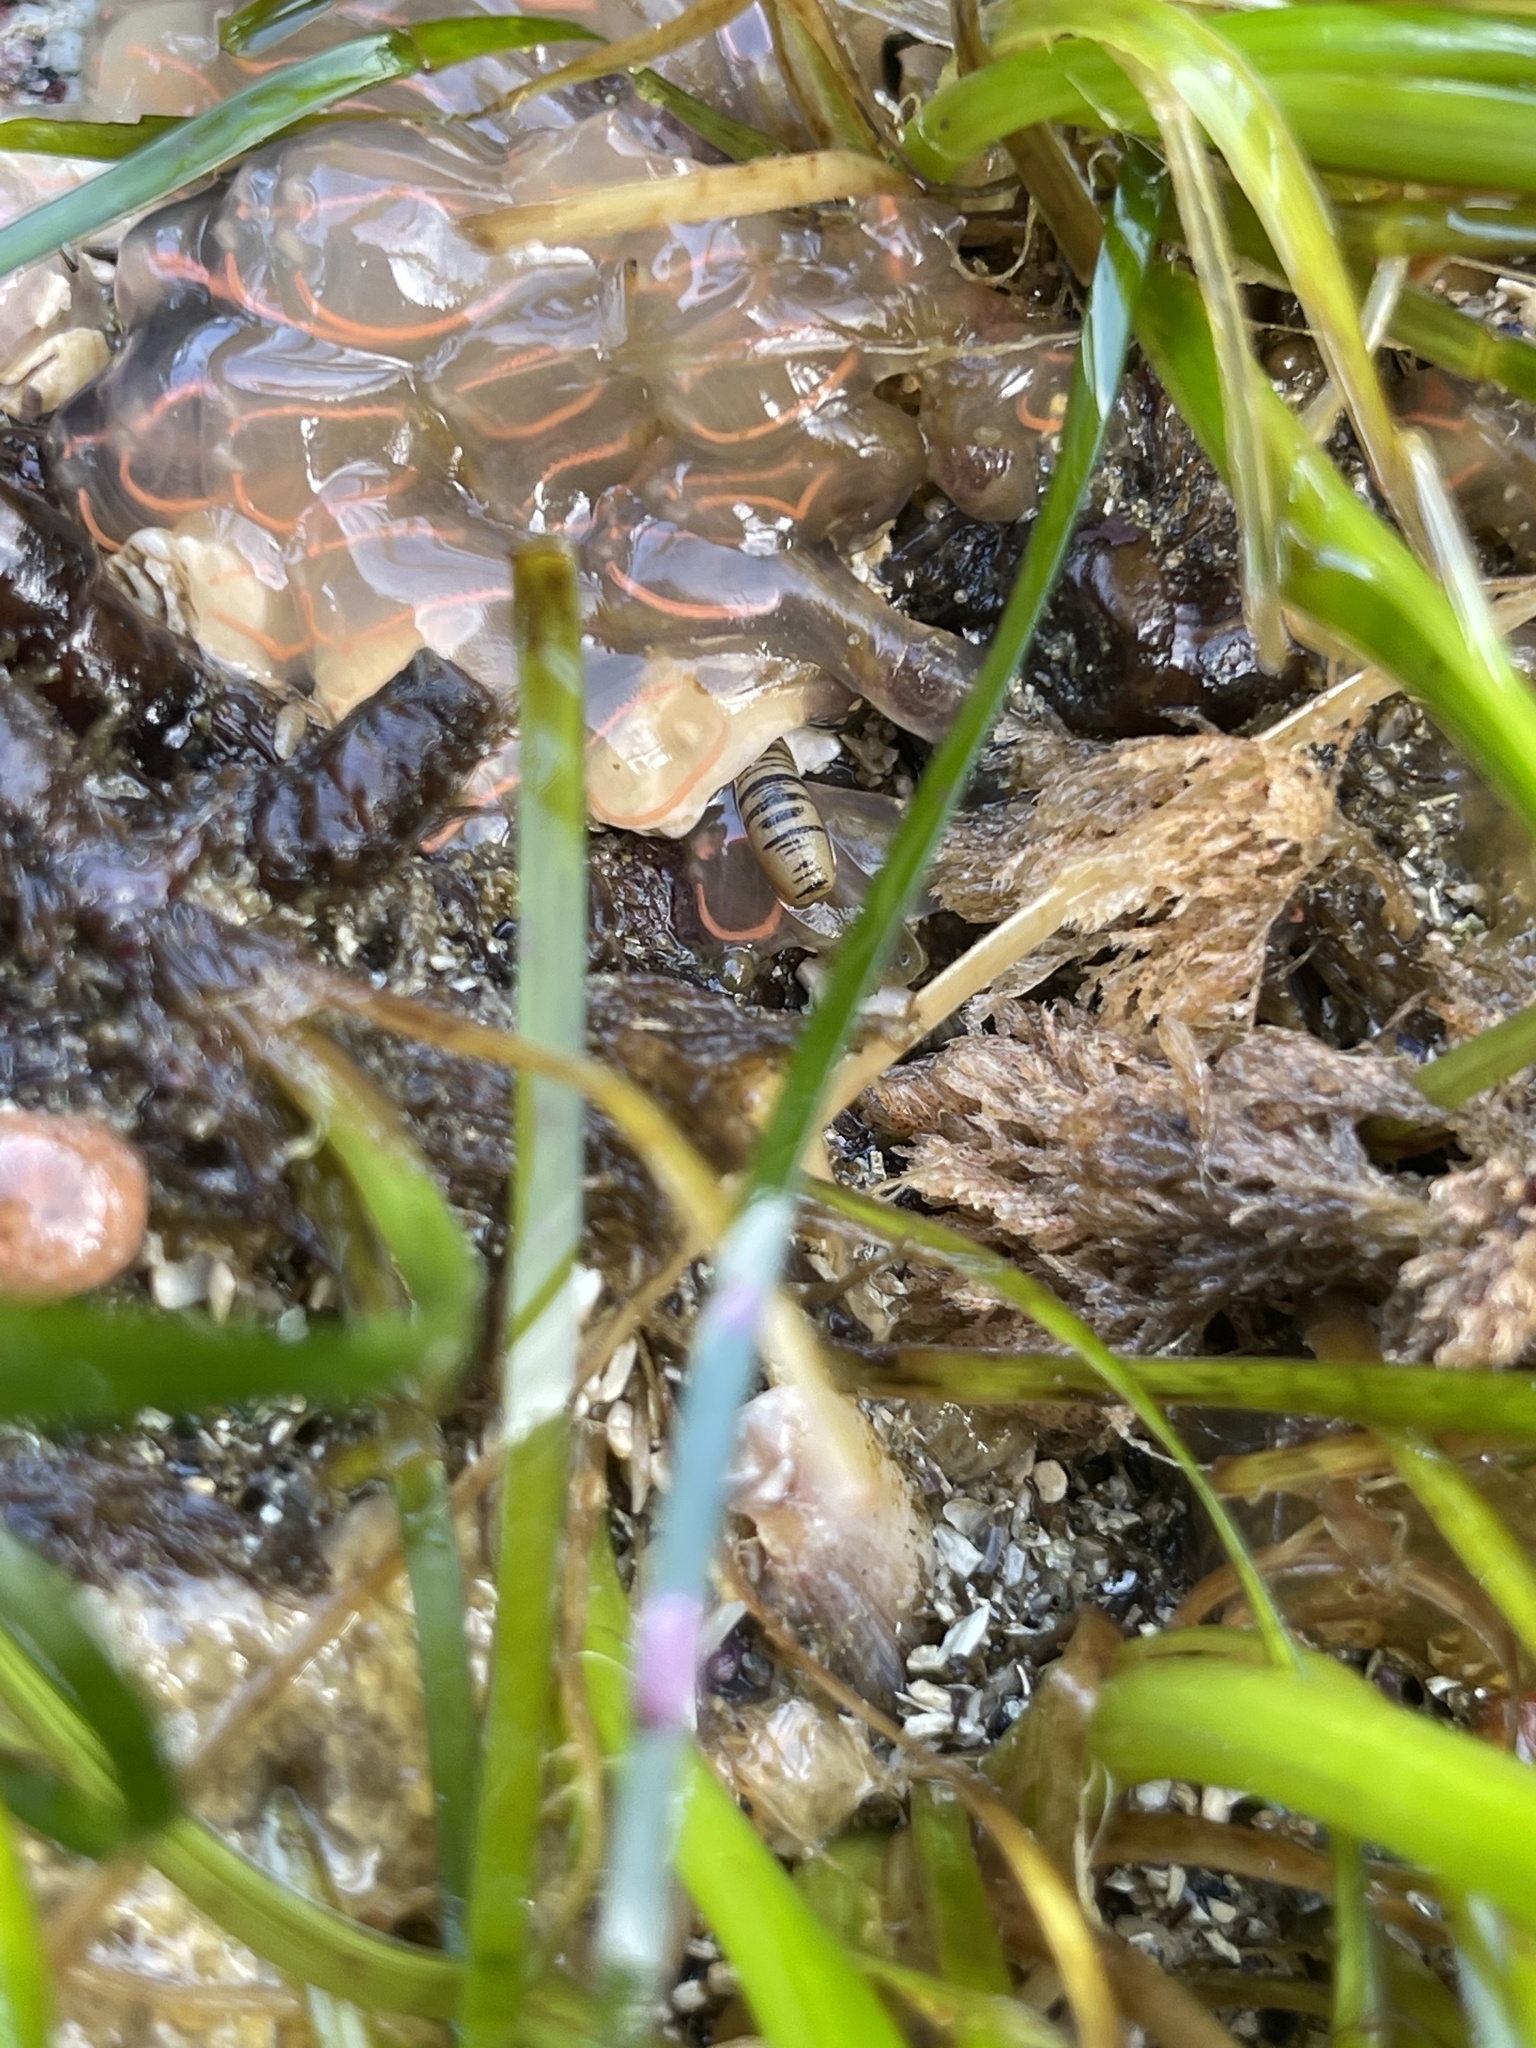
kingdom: Animalia
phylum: Chordata
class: Ascidiacea
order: Aplousobranchia
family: Clavelinidae
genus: Clavelina
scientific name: Clavelina huntsmani
